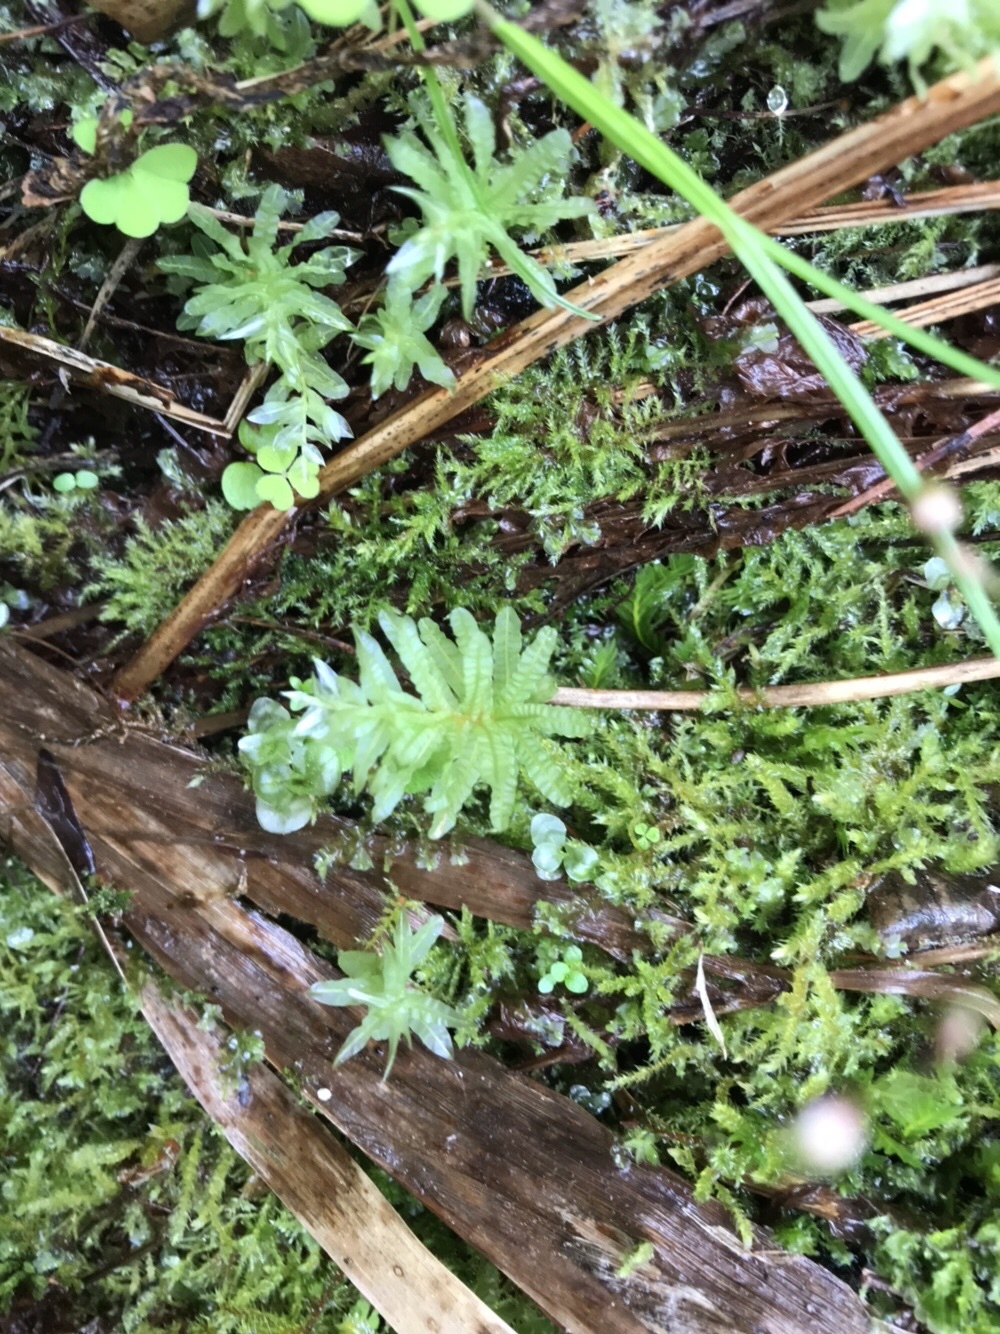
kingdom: Plantae
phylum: Bryophyta
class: Bryopsida
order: Bryales
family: Mniaceae
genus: Plagiomnium
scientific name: Plagiomnium undulatum
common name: Hart's-tongue thyme-moss
